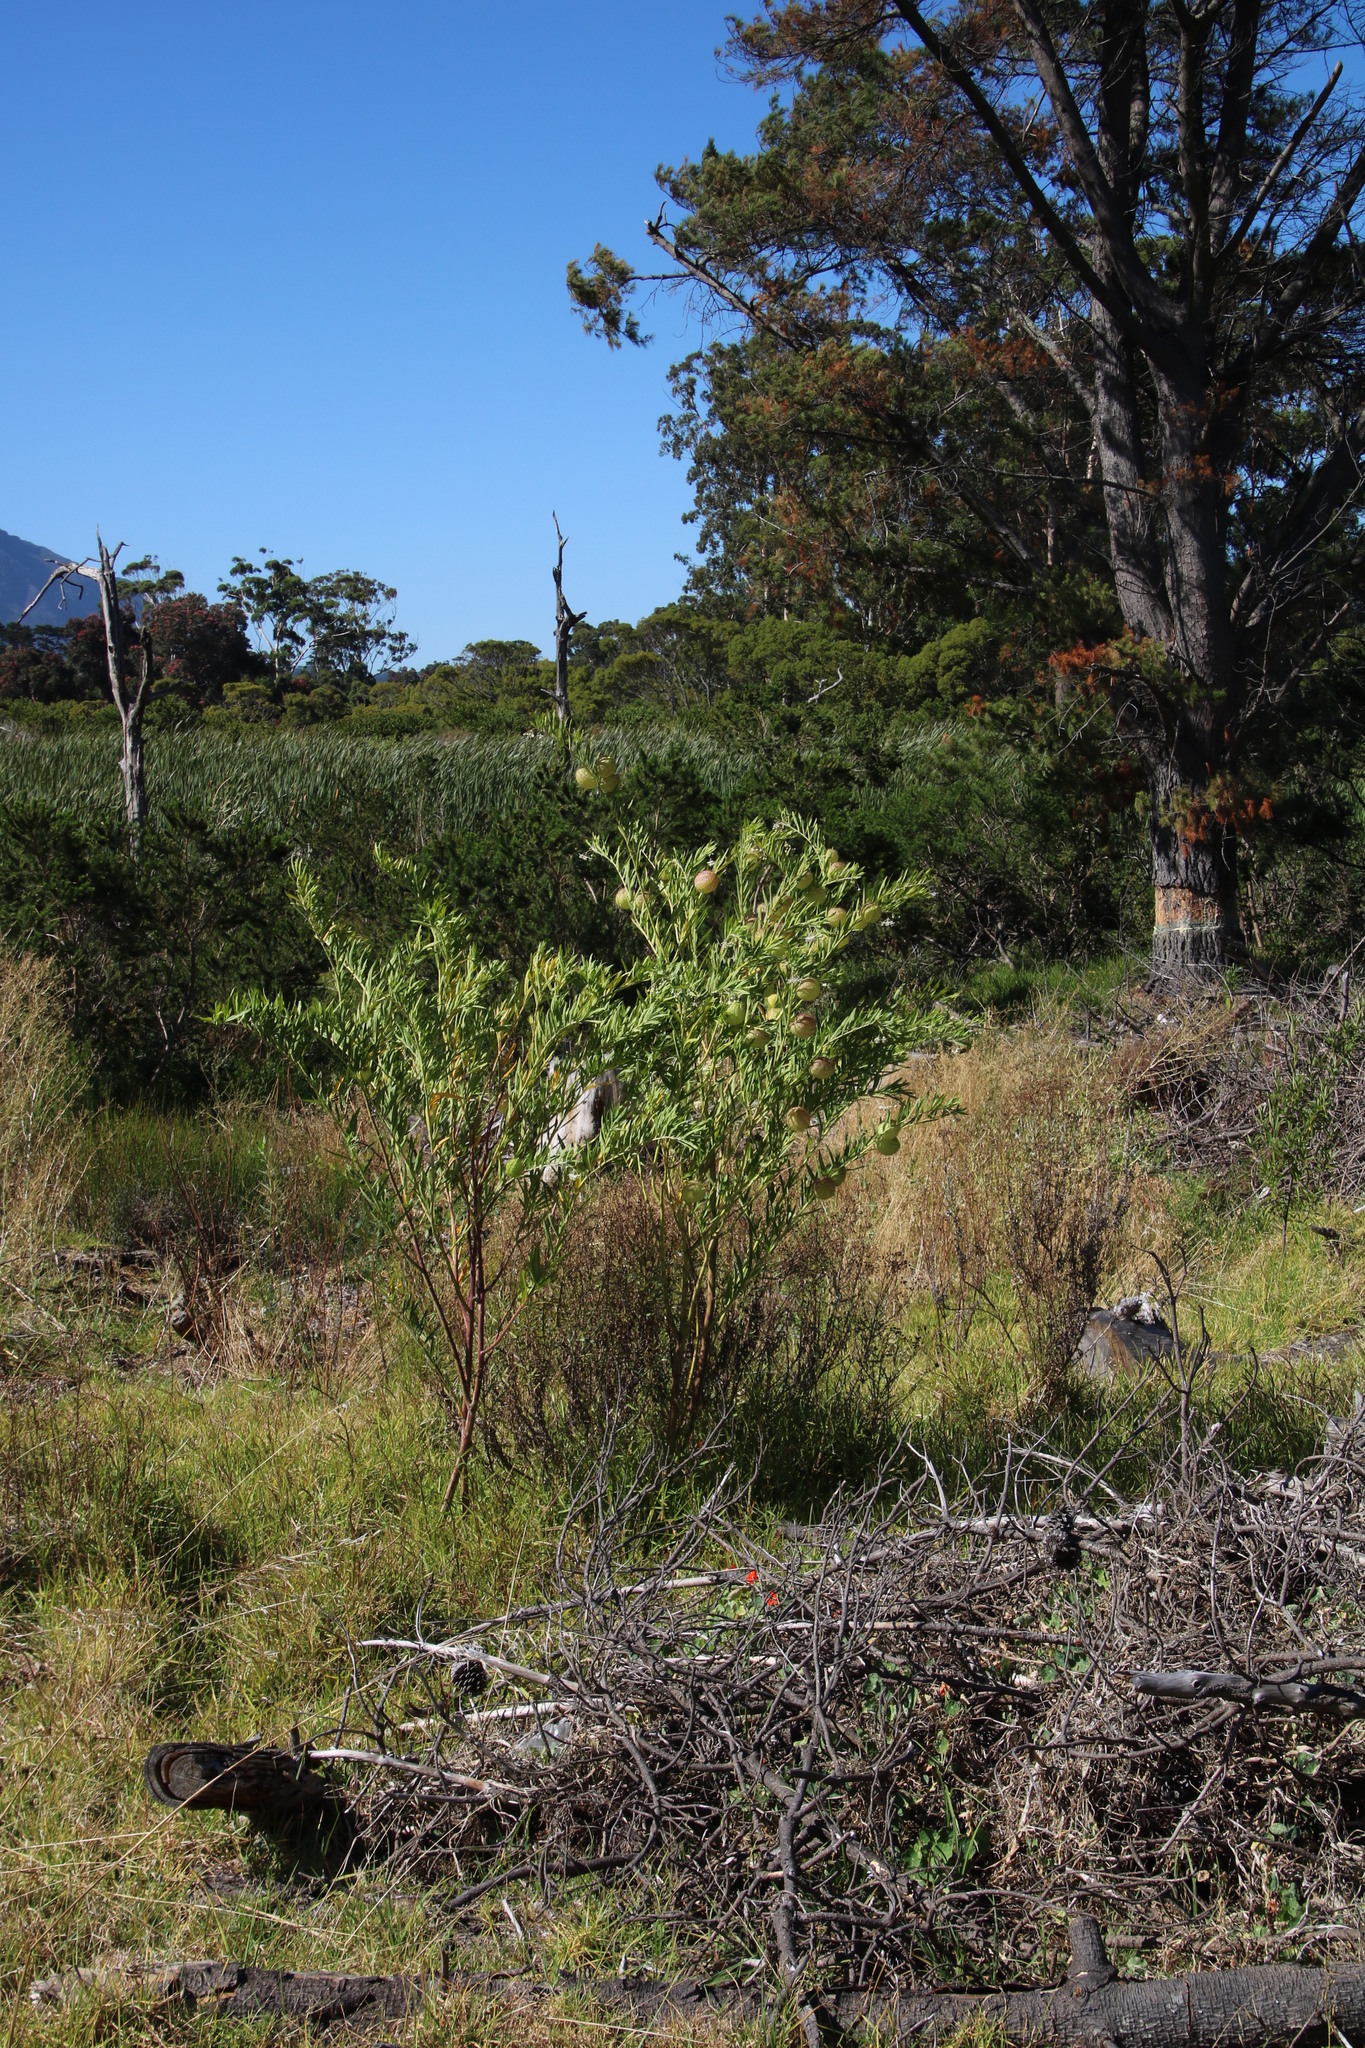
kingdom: Plantae
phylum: Tracheophyta
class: Magnoliopsida
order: Gentianales
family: Apocynaceae
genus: Gomphocarpus
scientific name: Gomphocarpus physocarpus
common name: Balloon cotton bush
